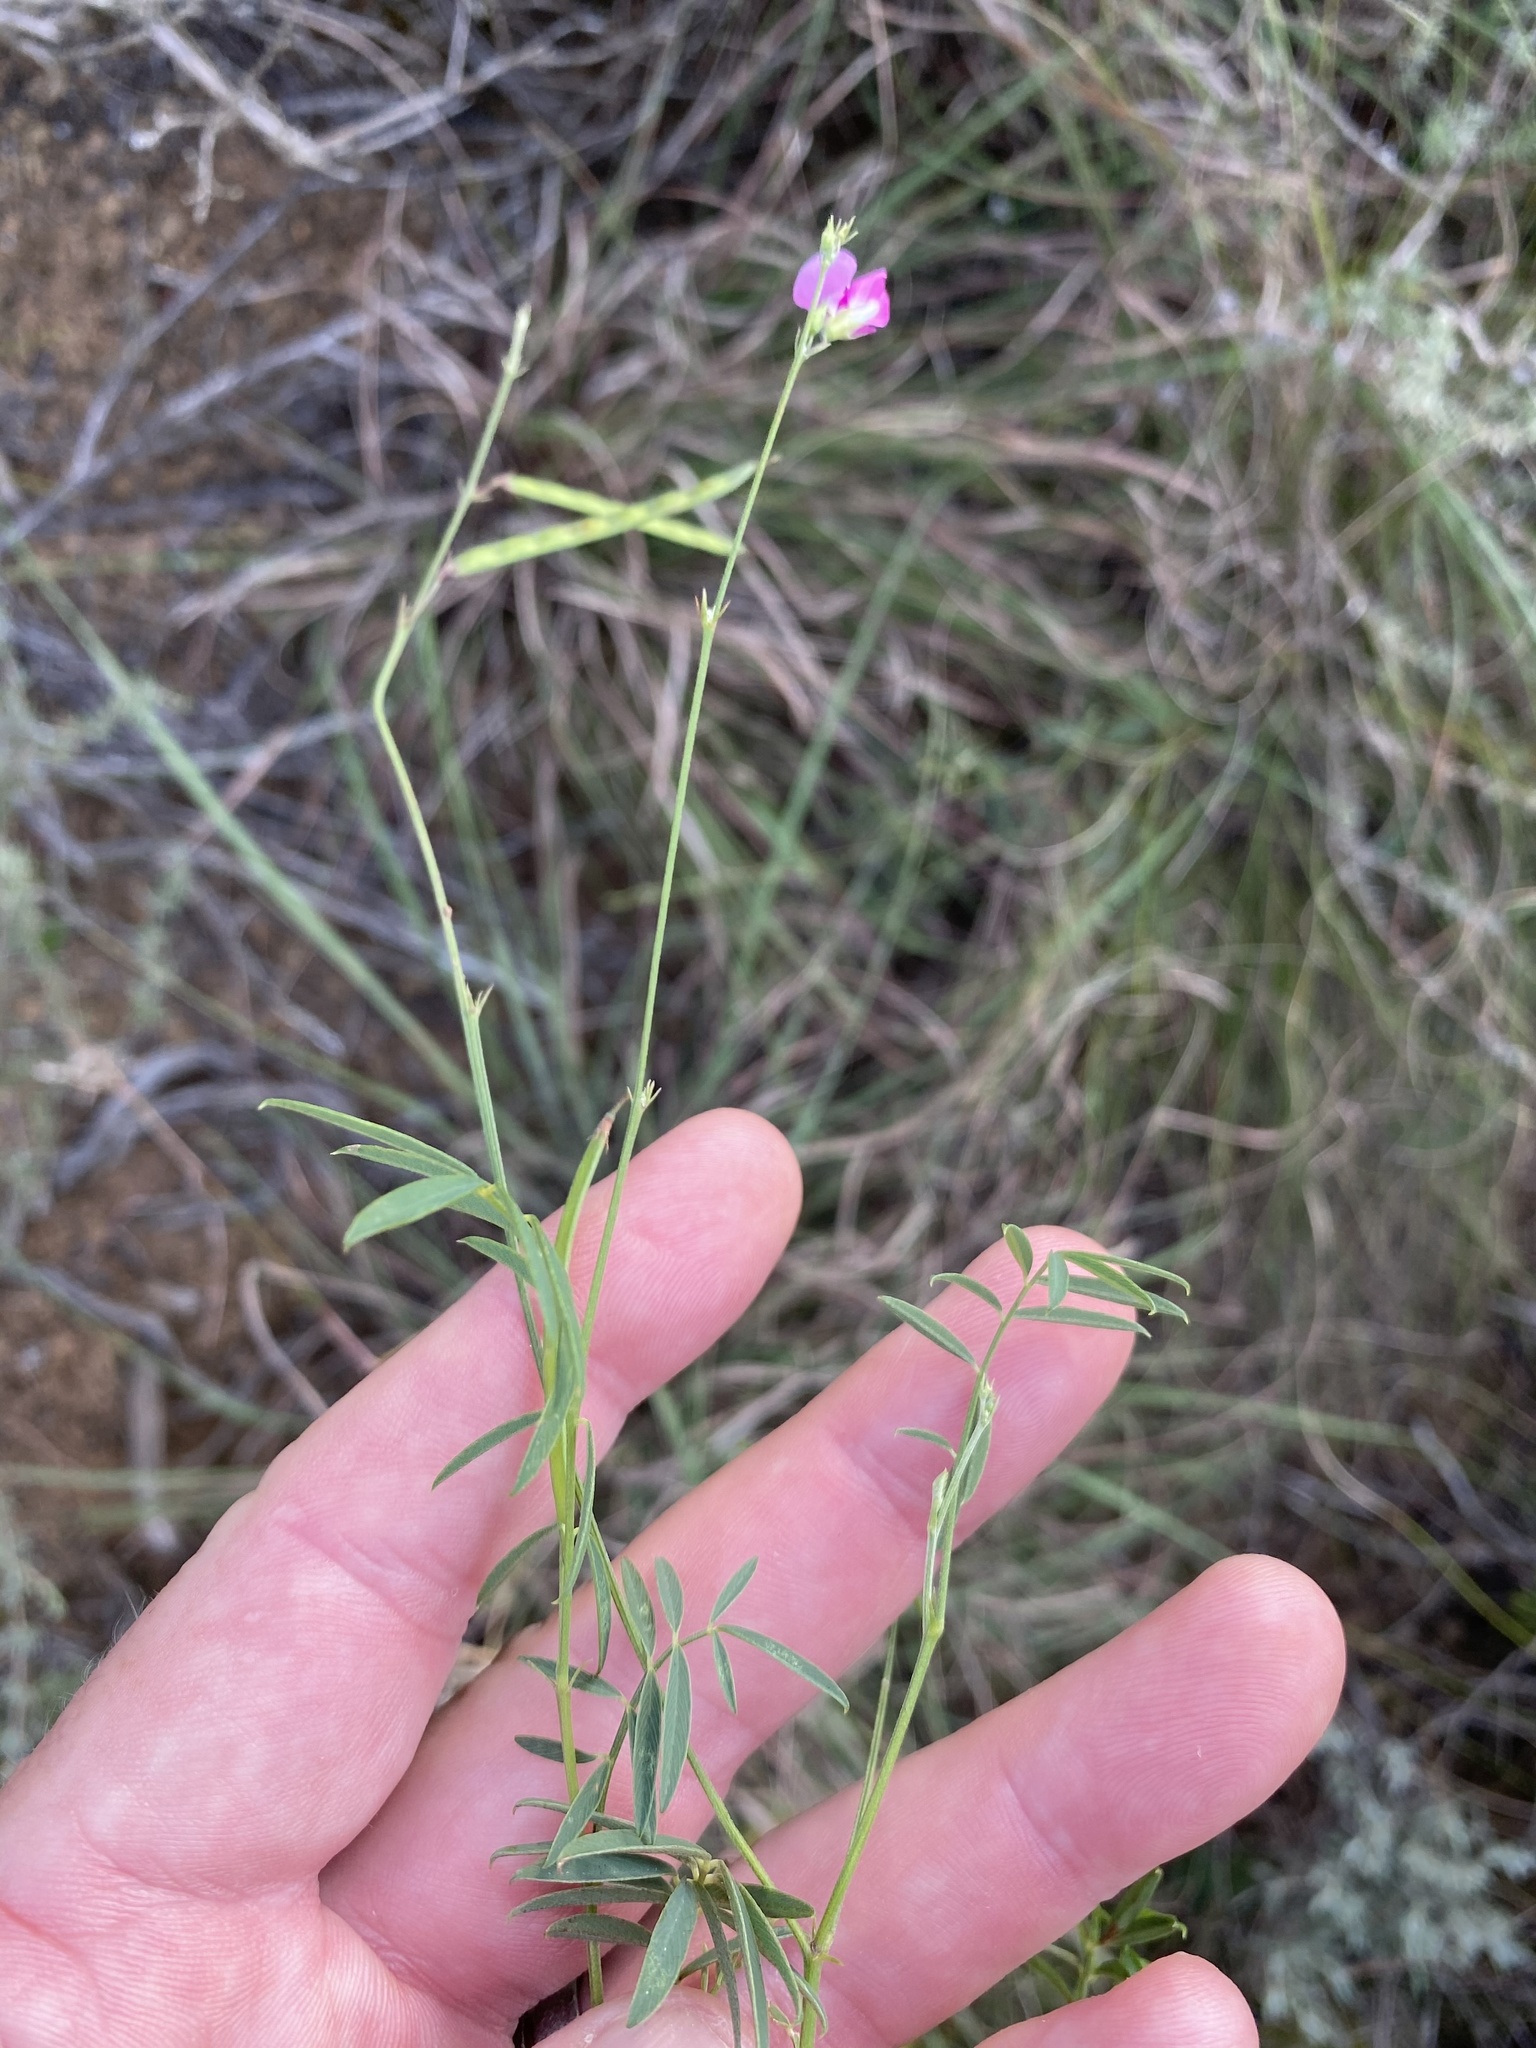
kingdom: Plantae
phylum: Tracheophyta
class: Magnoliopsida
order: Fabales
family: Fabaceae
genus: Tephrosia
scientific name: Tephrosia capensis
